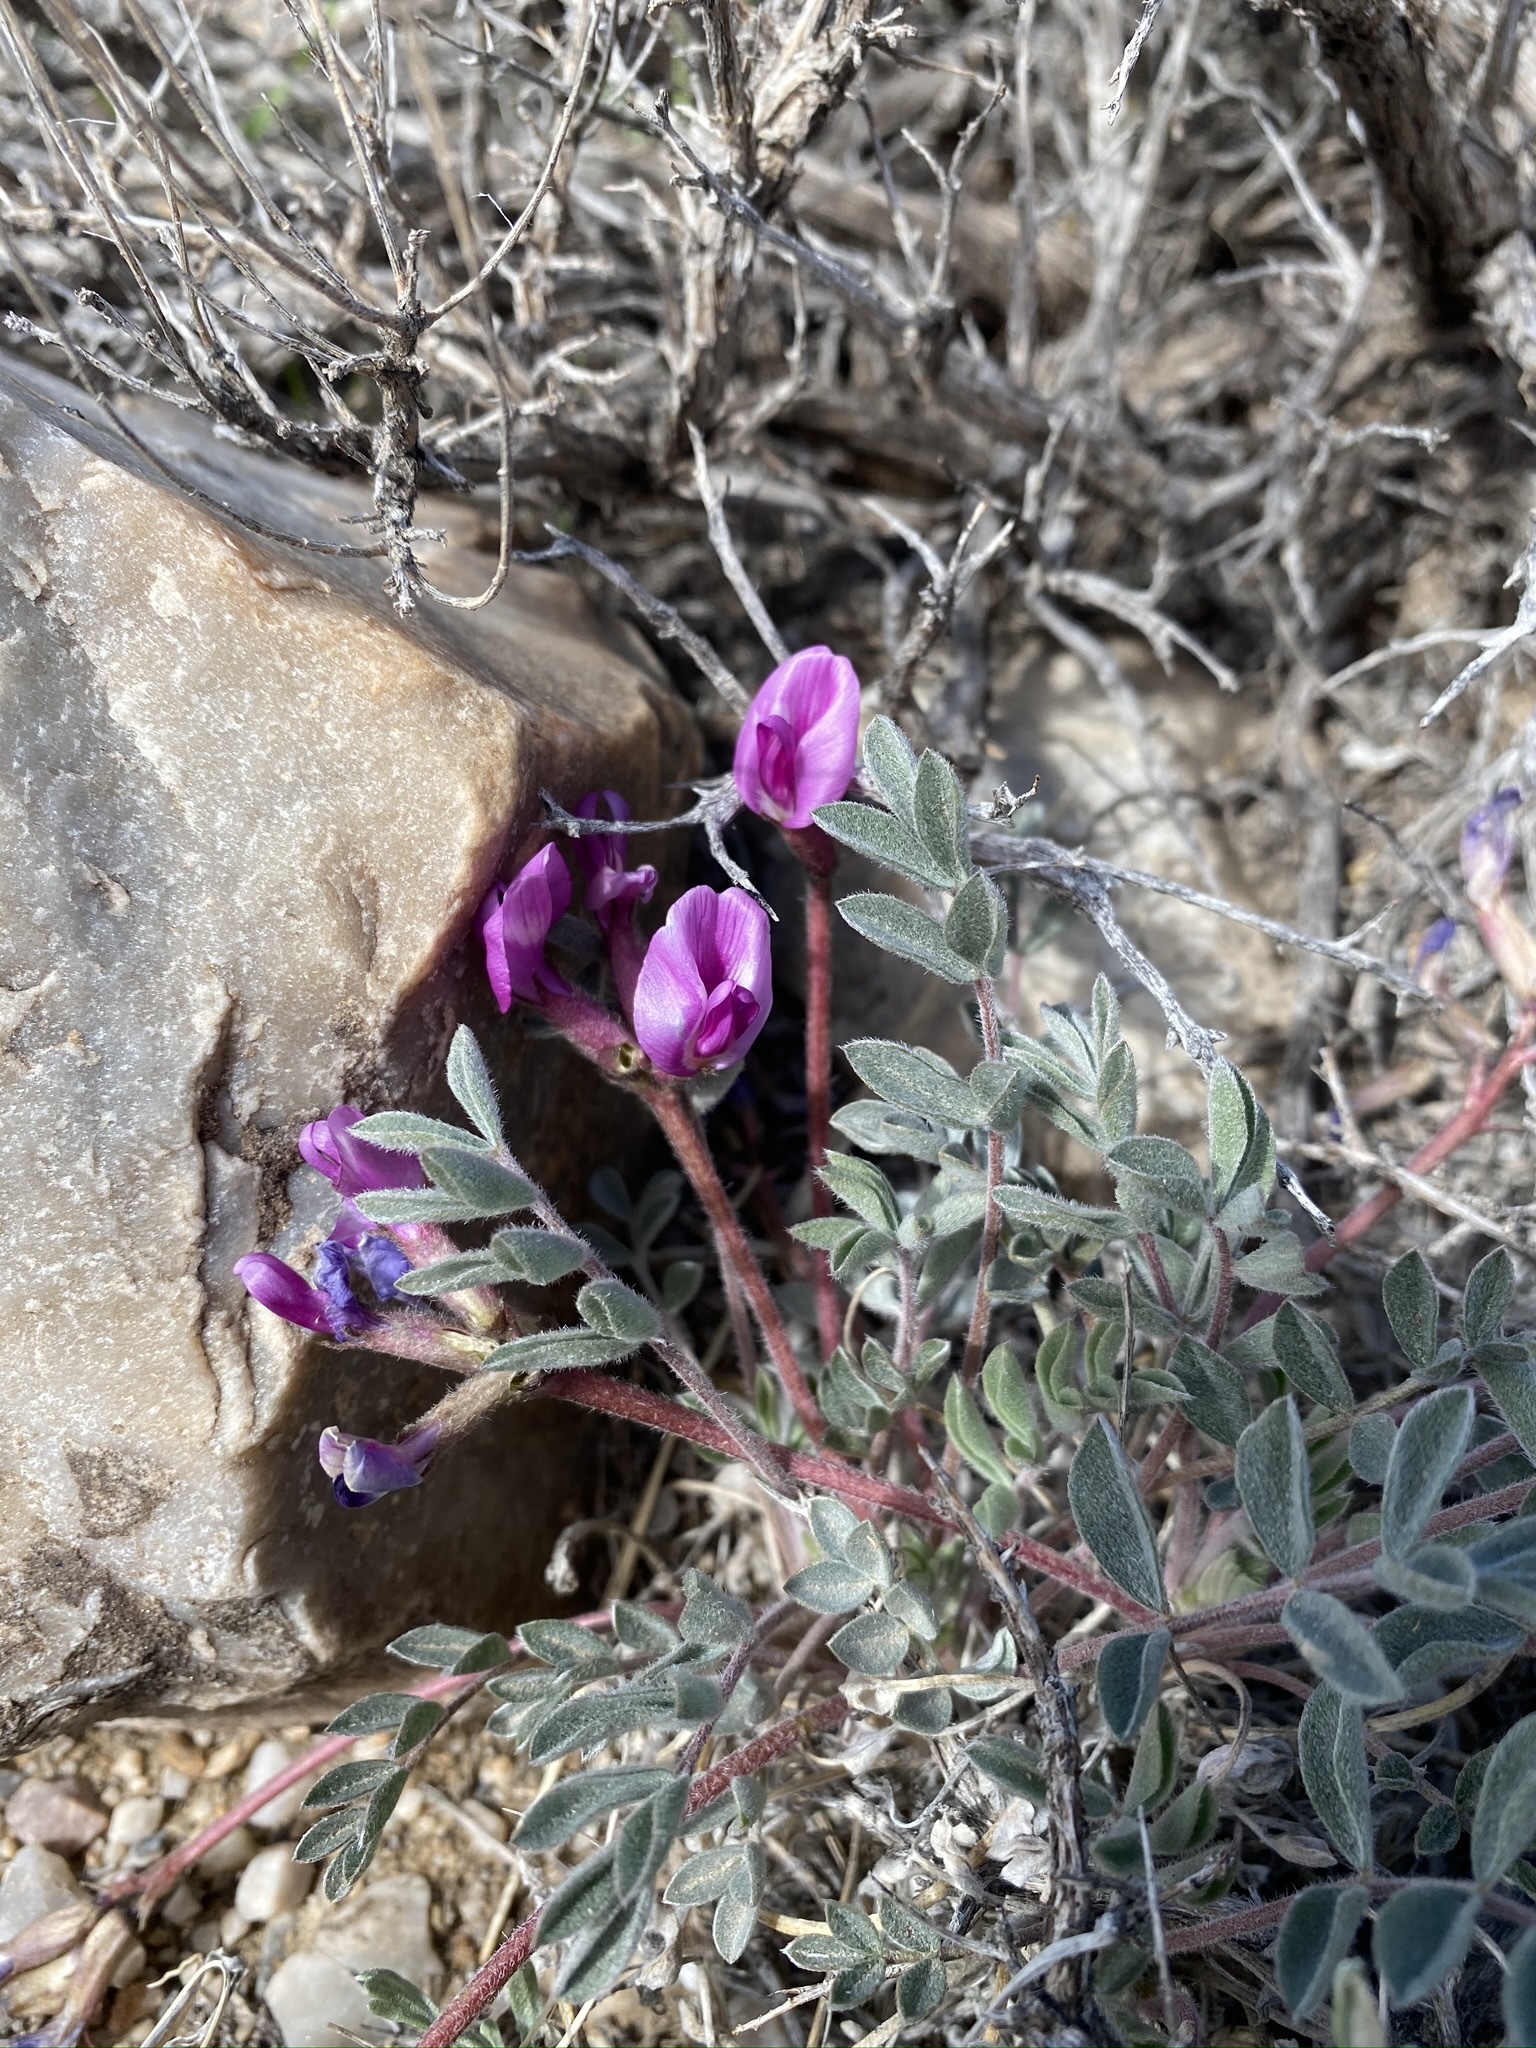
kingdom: Plantae
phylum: Tracheophyta
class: Magnoliopsida
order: Fabales
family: Fabaceae
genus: Astragalus
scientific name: Astragalus purshii
